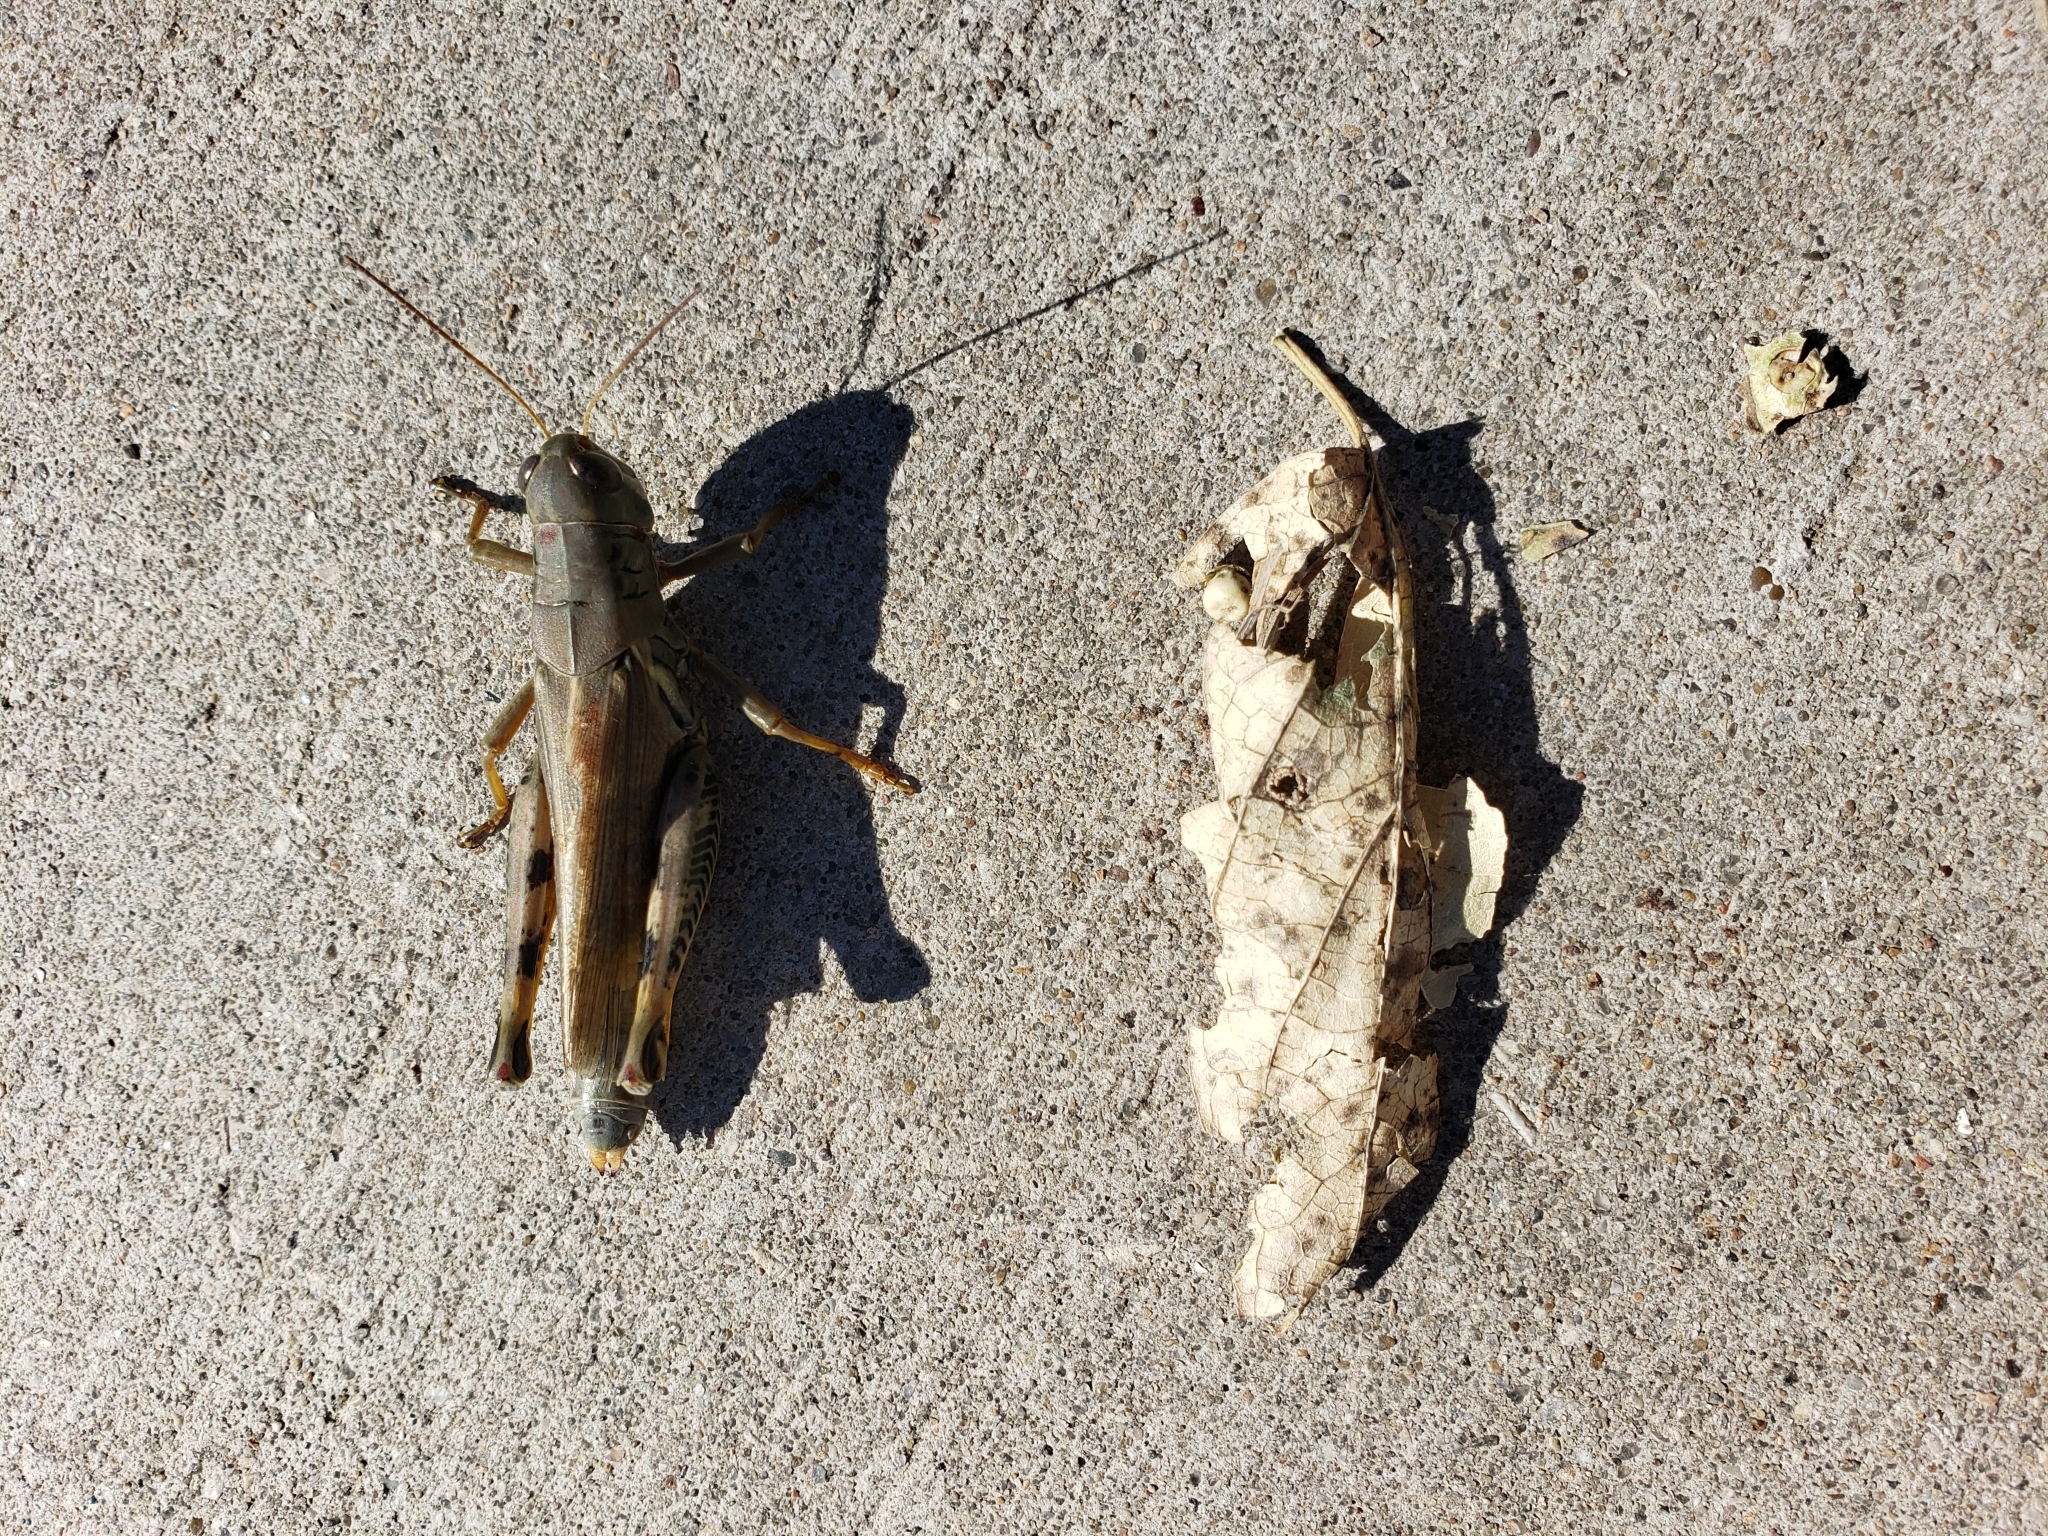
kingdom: Animalia
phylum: Arthropoda
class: Insecta
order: Orthoptera
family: Acrididae
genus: Melanoplus
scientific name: Melanoplus differentialis
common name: Differential grasshopper
